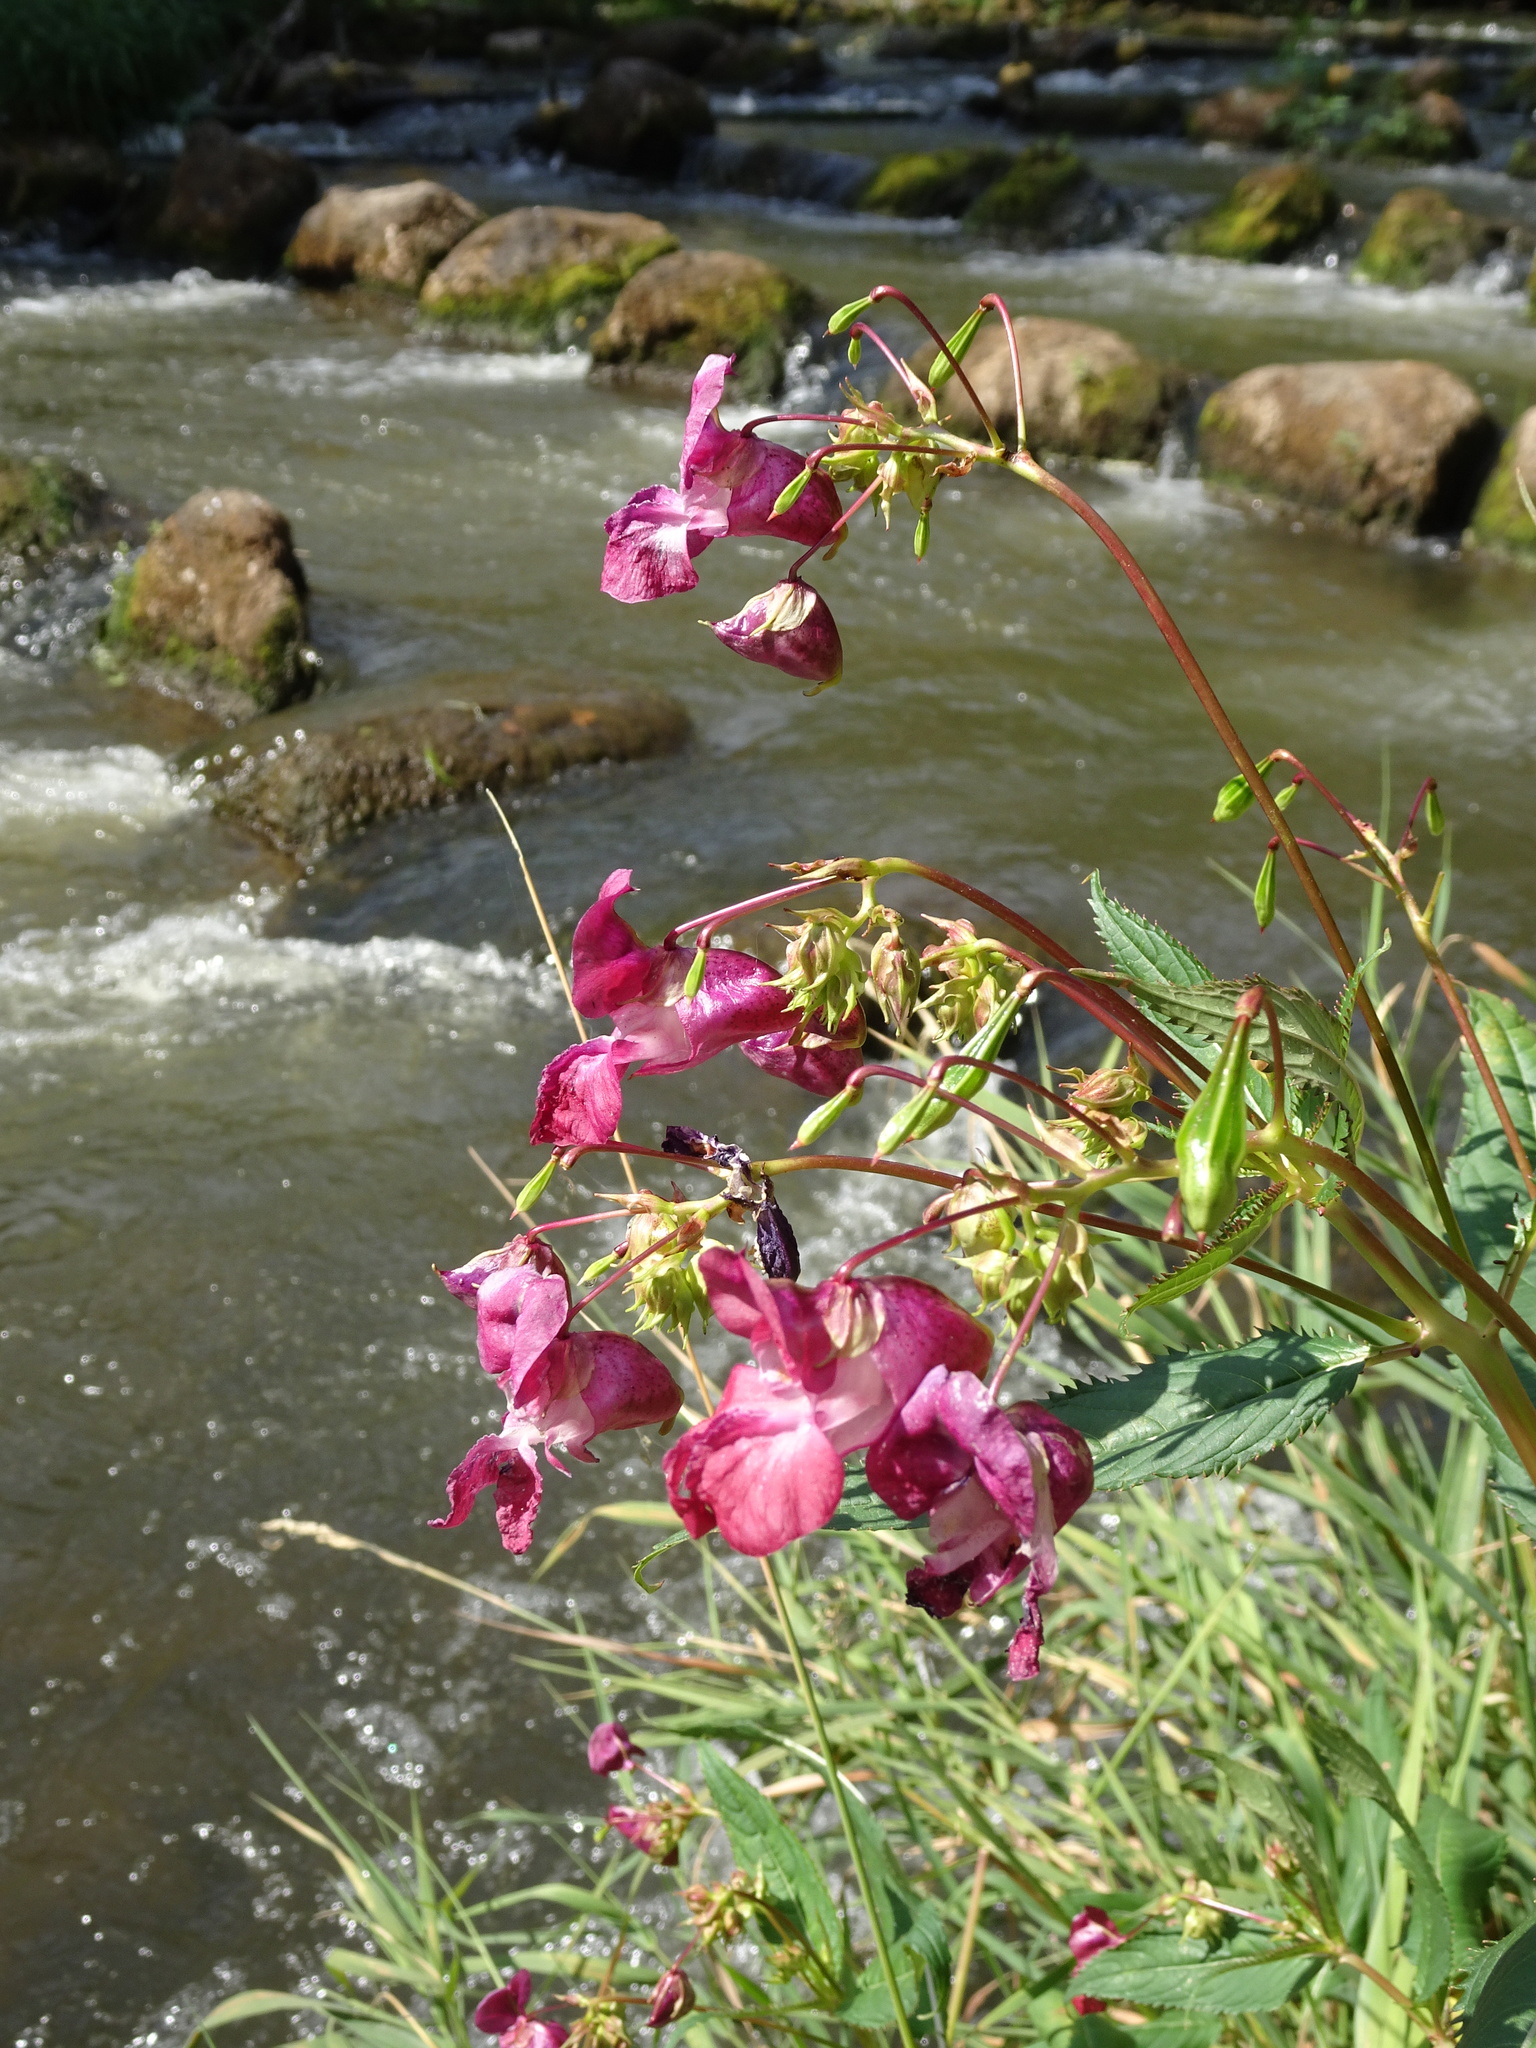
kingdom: Plantae
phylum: Tracheophyta
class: Magnoliopsida
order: Ericales
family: Balsaminaceae
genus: Impatiens
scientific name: Impatiens glandulifera
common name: Himalayan balsam
